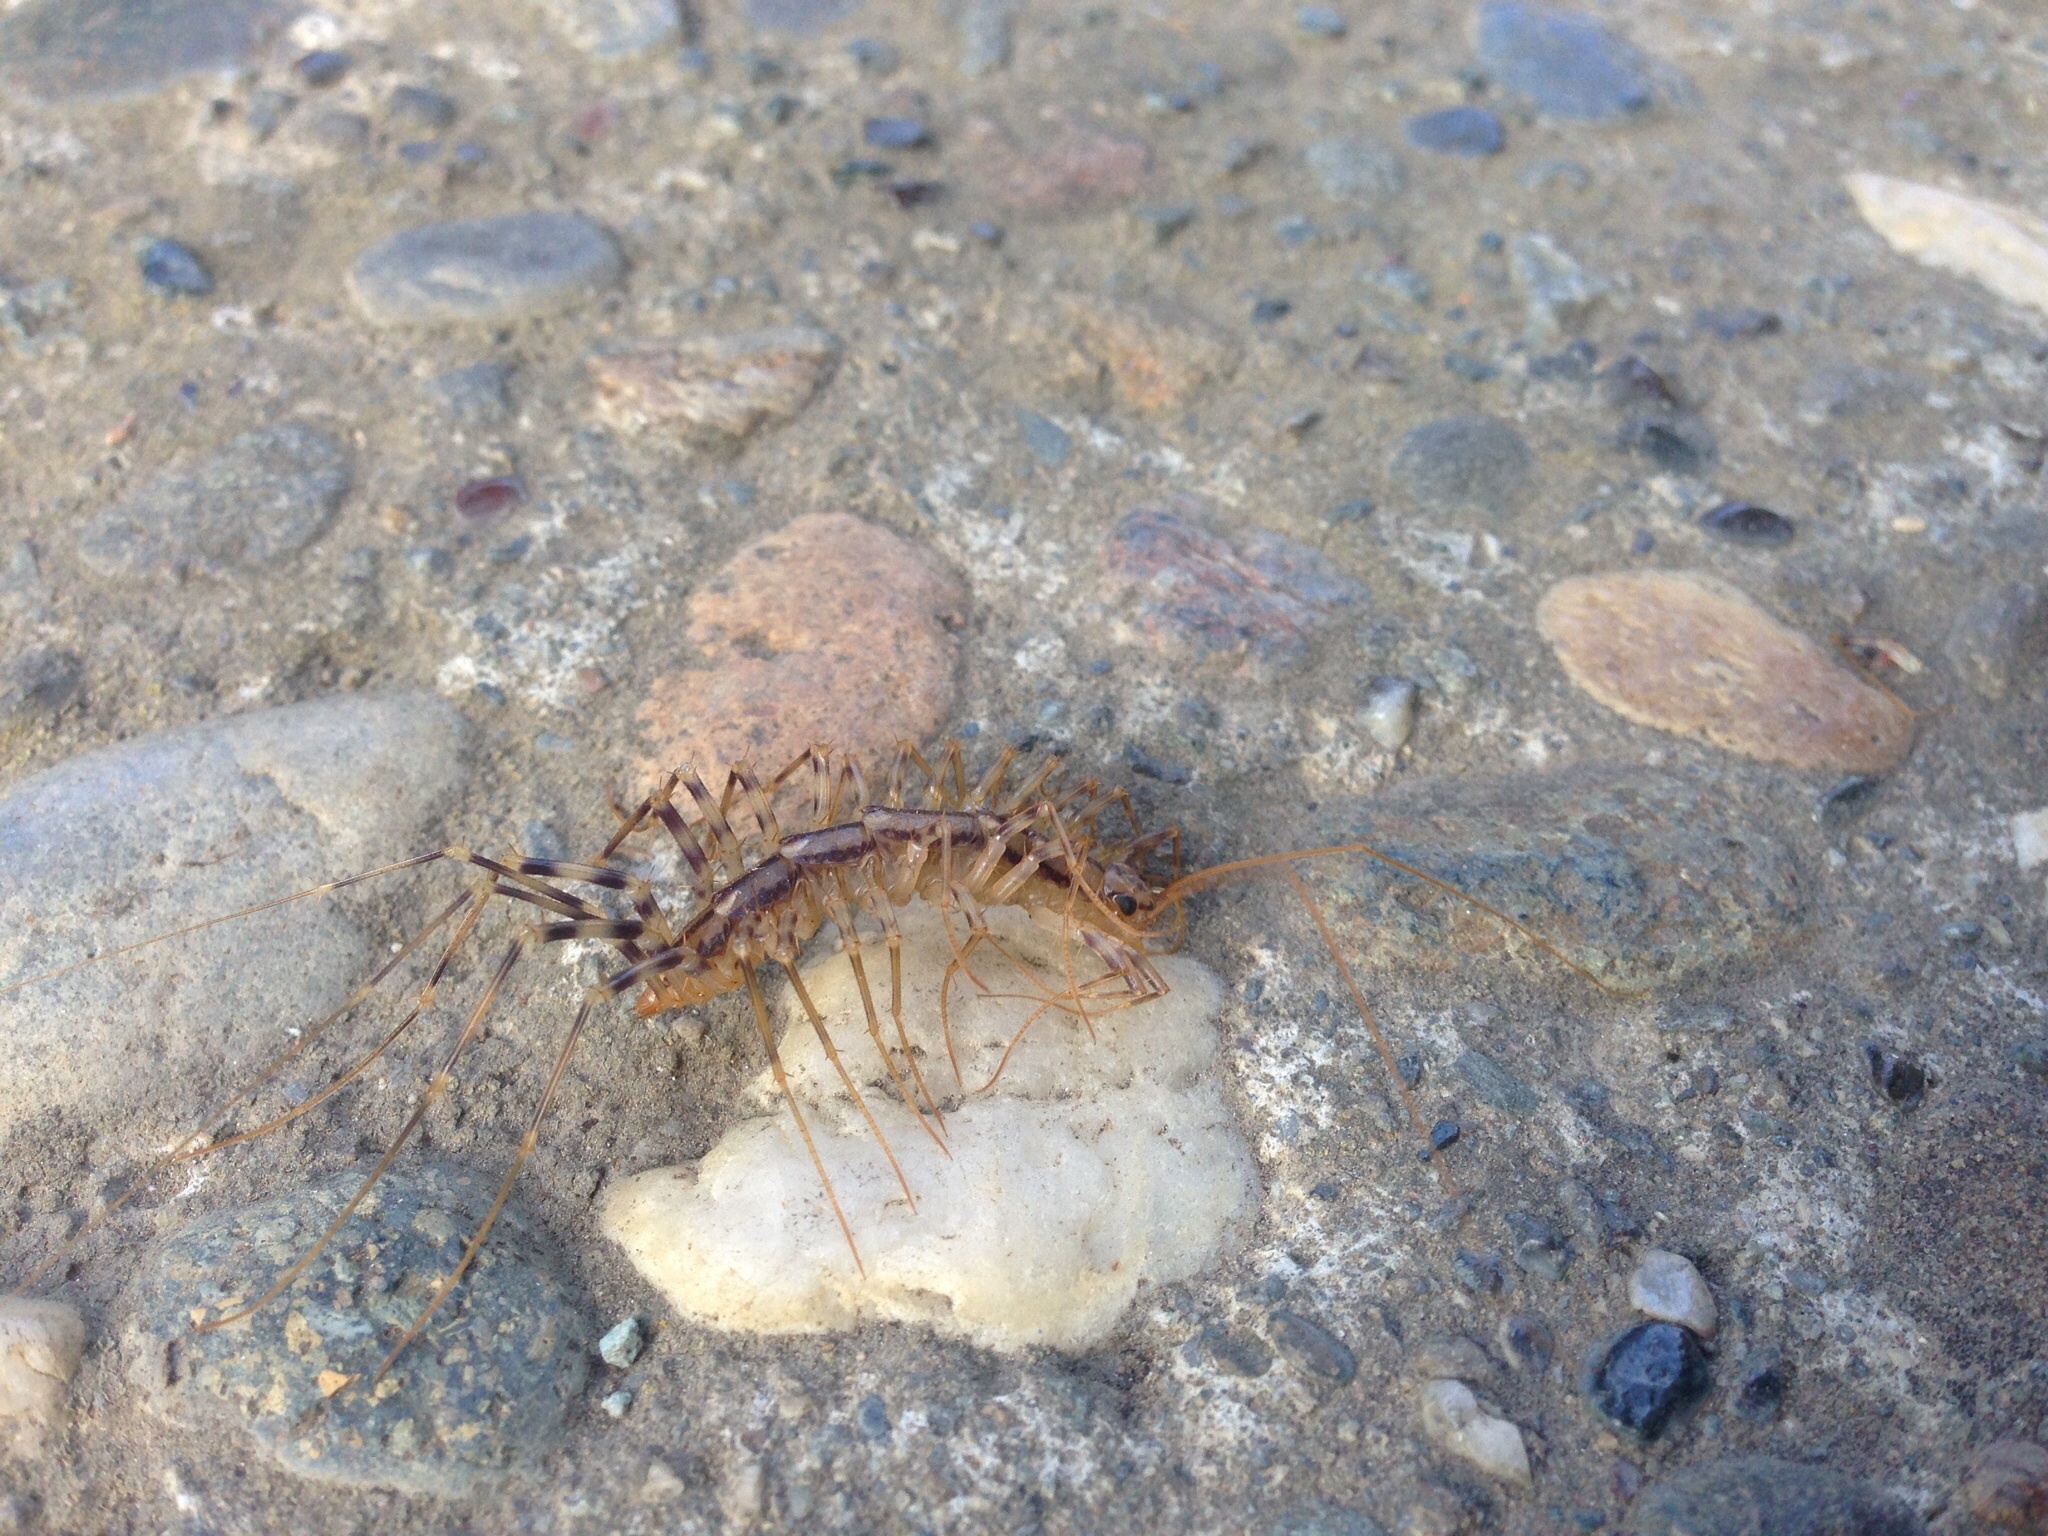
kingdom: Animalia
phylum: Arthropoda
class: Chilopoda
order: Scutigeromorpha
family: Scutigeridae
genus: Scutigera
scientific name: Scutigera coleoptrata
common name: House centipede
